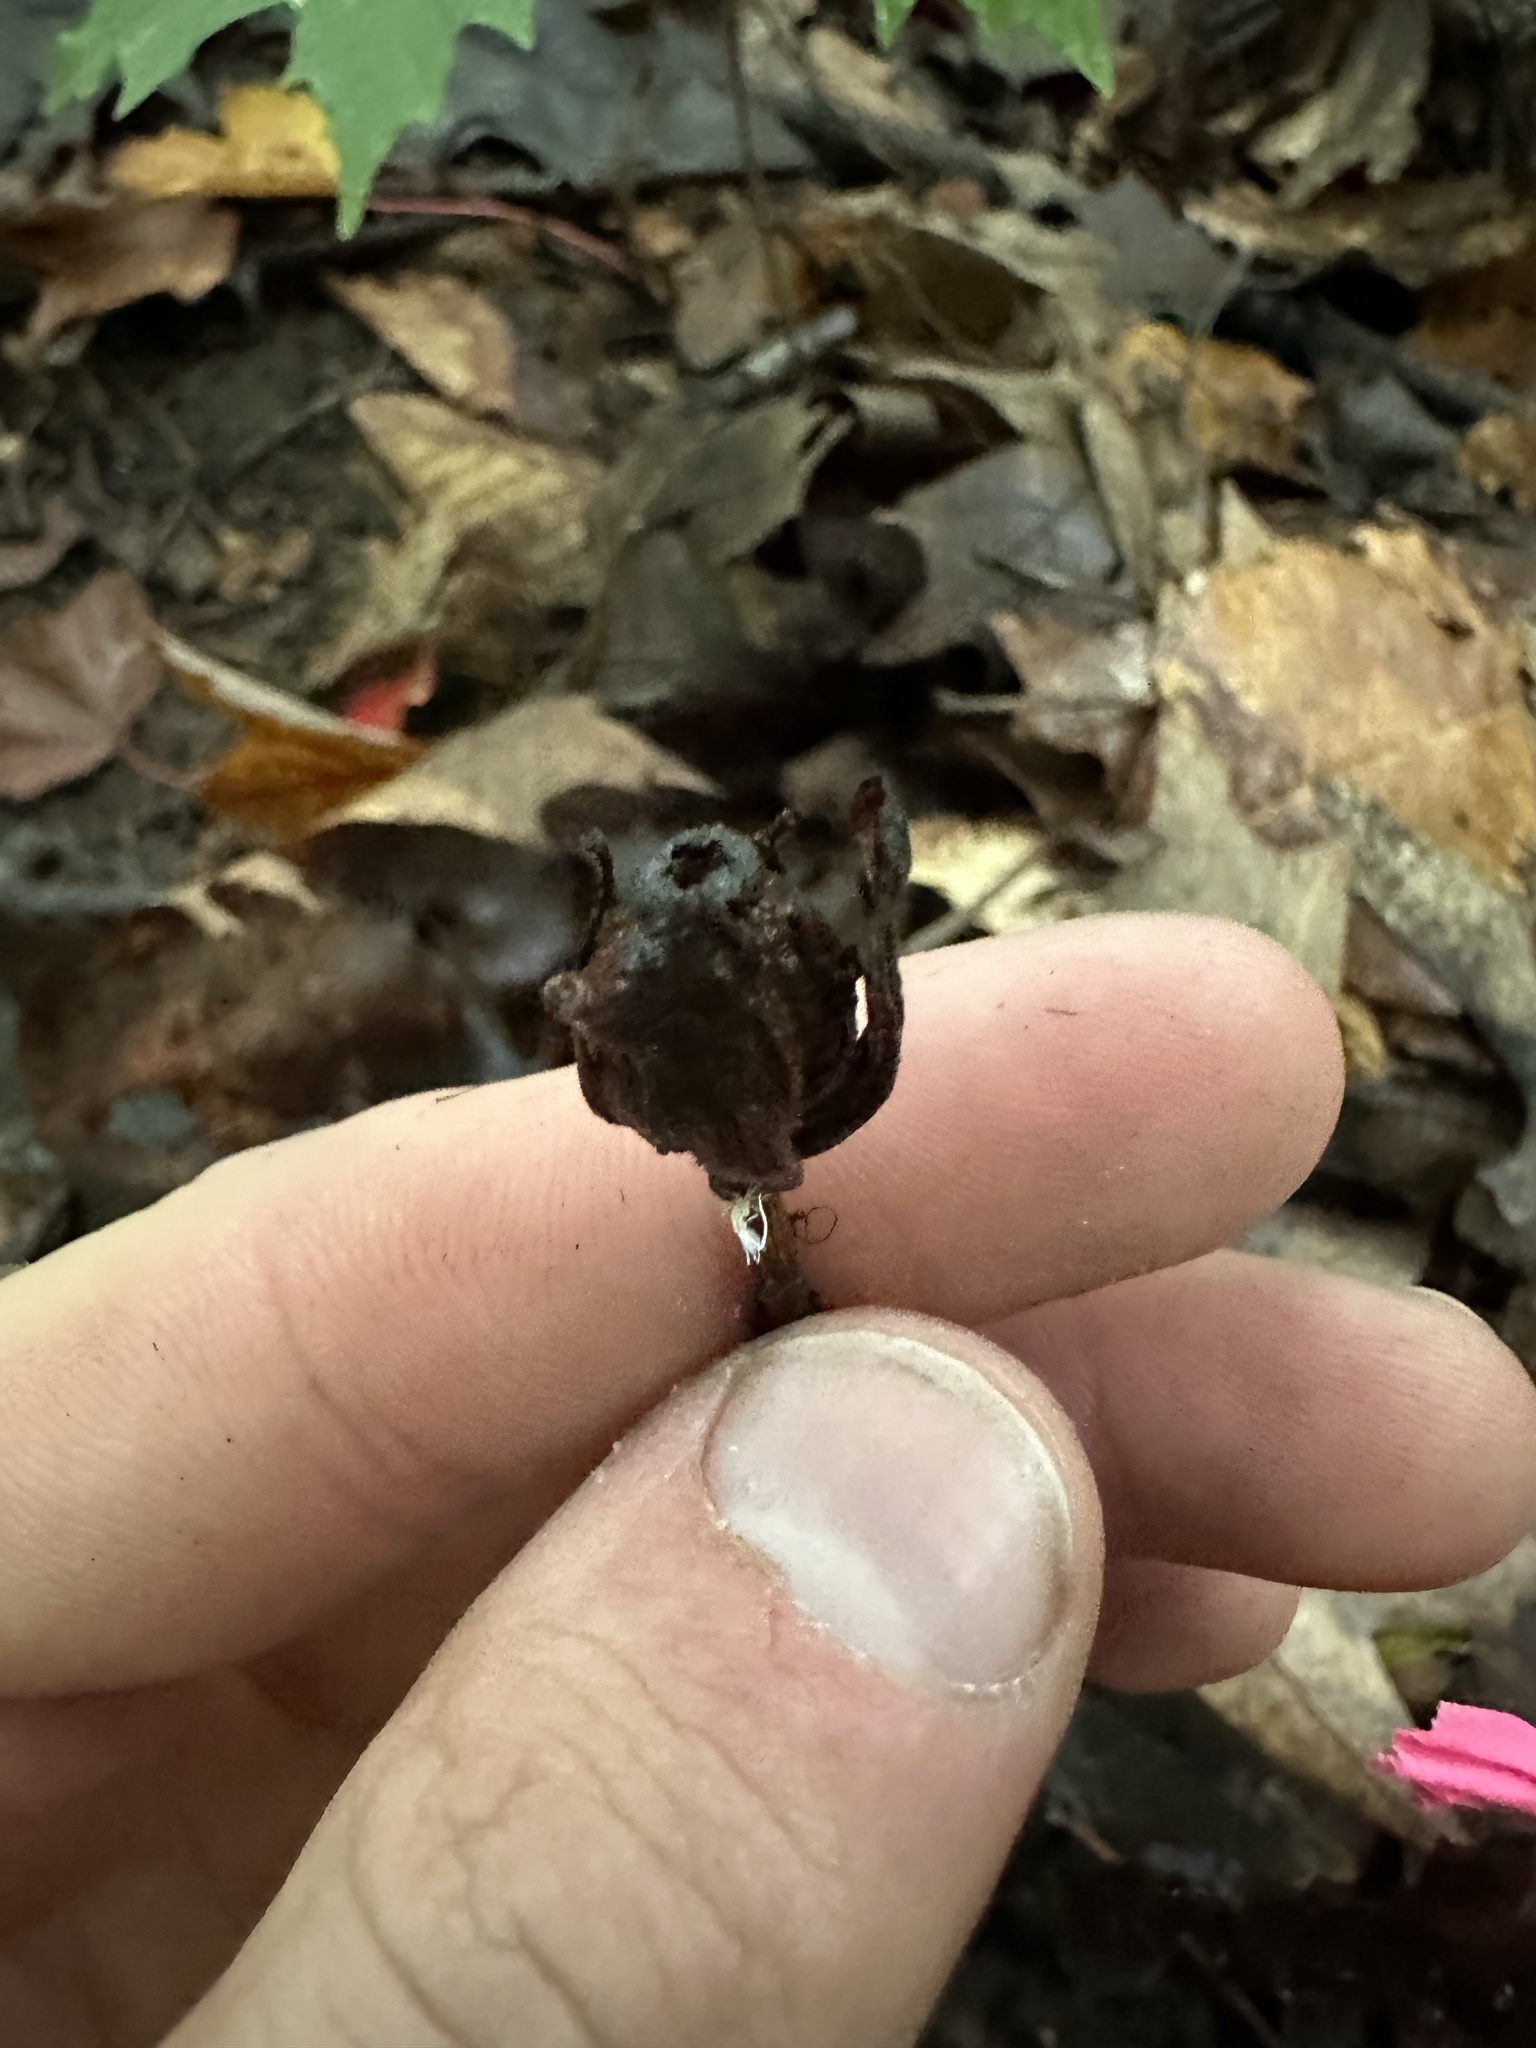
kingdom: Plantae
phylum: Tracheophyta
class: Magnoliopsida
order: Ericales
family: Ericaceae
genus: Monotropa
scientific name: Monotropa uniflora
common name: Convulsion root
